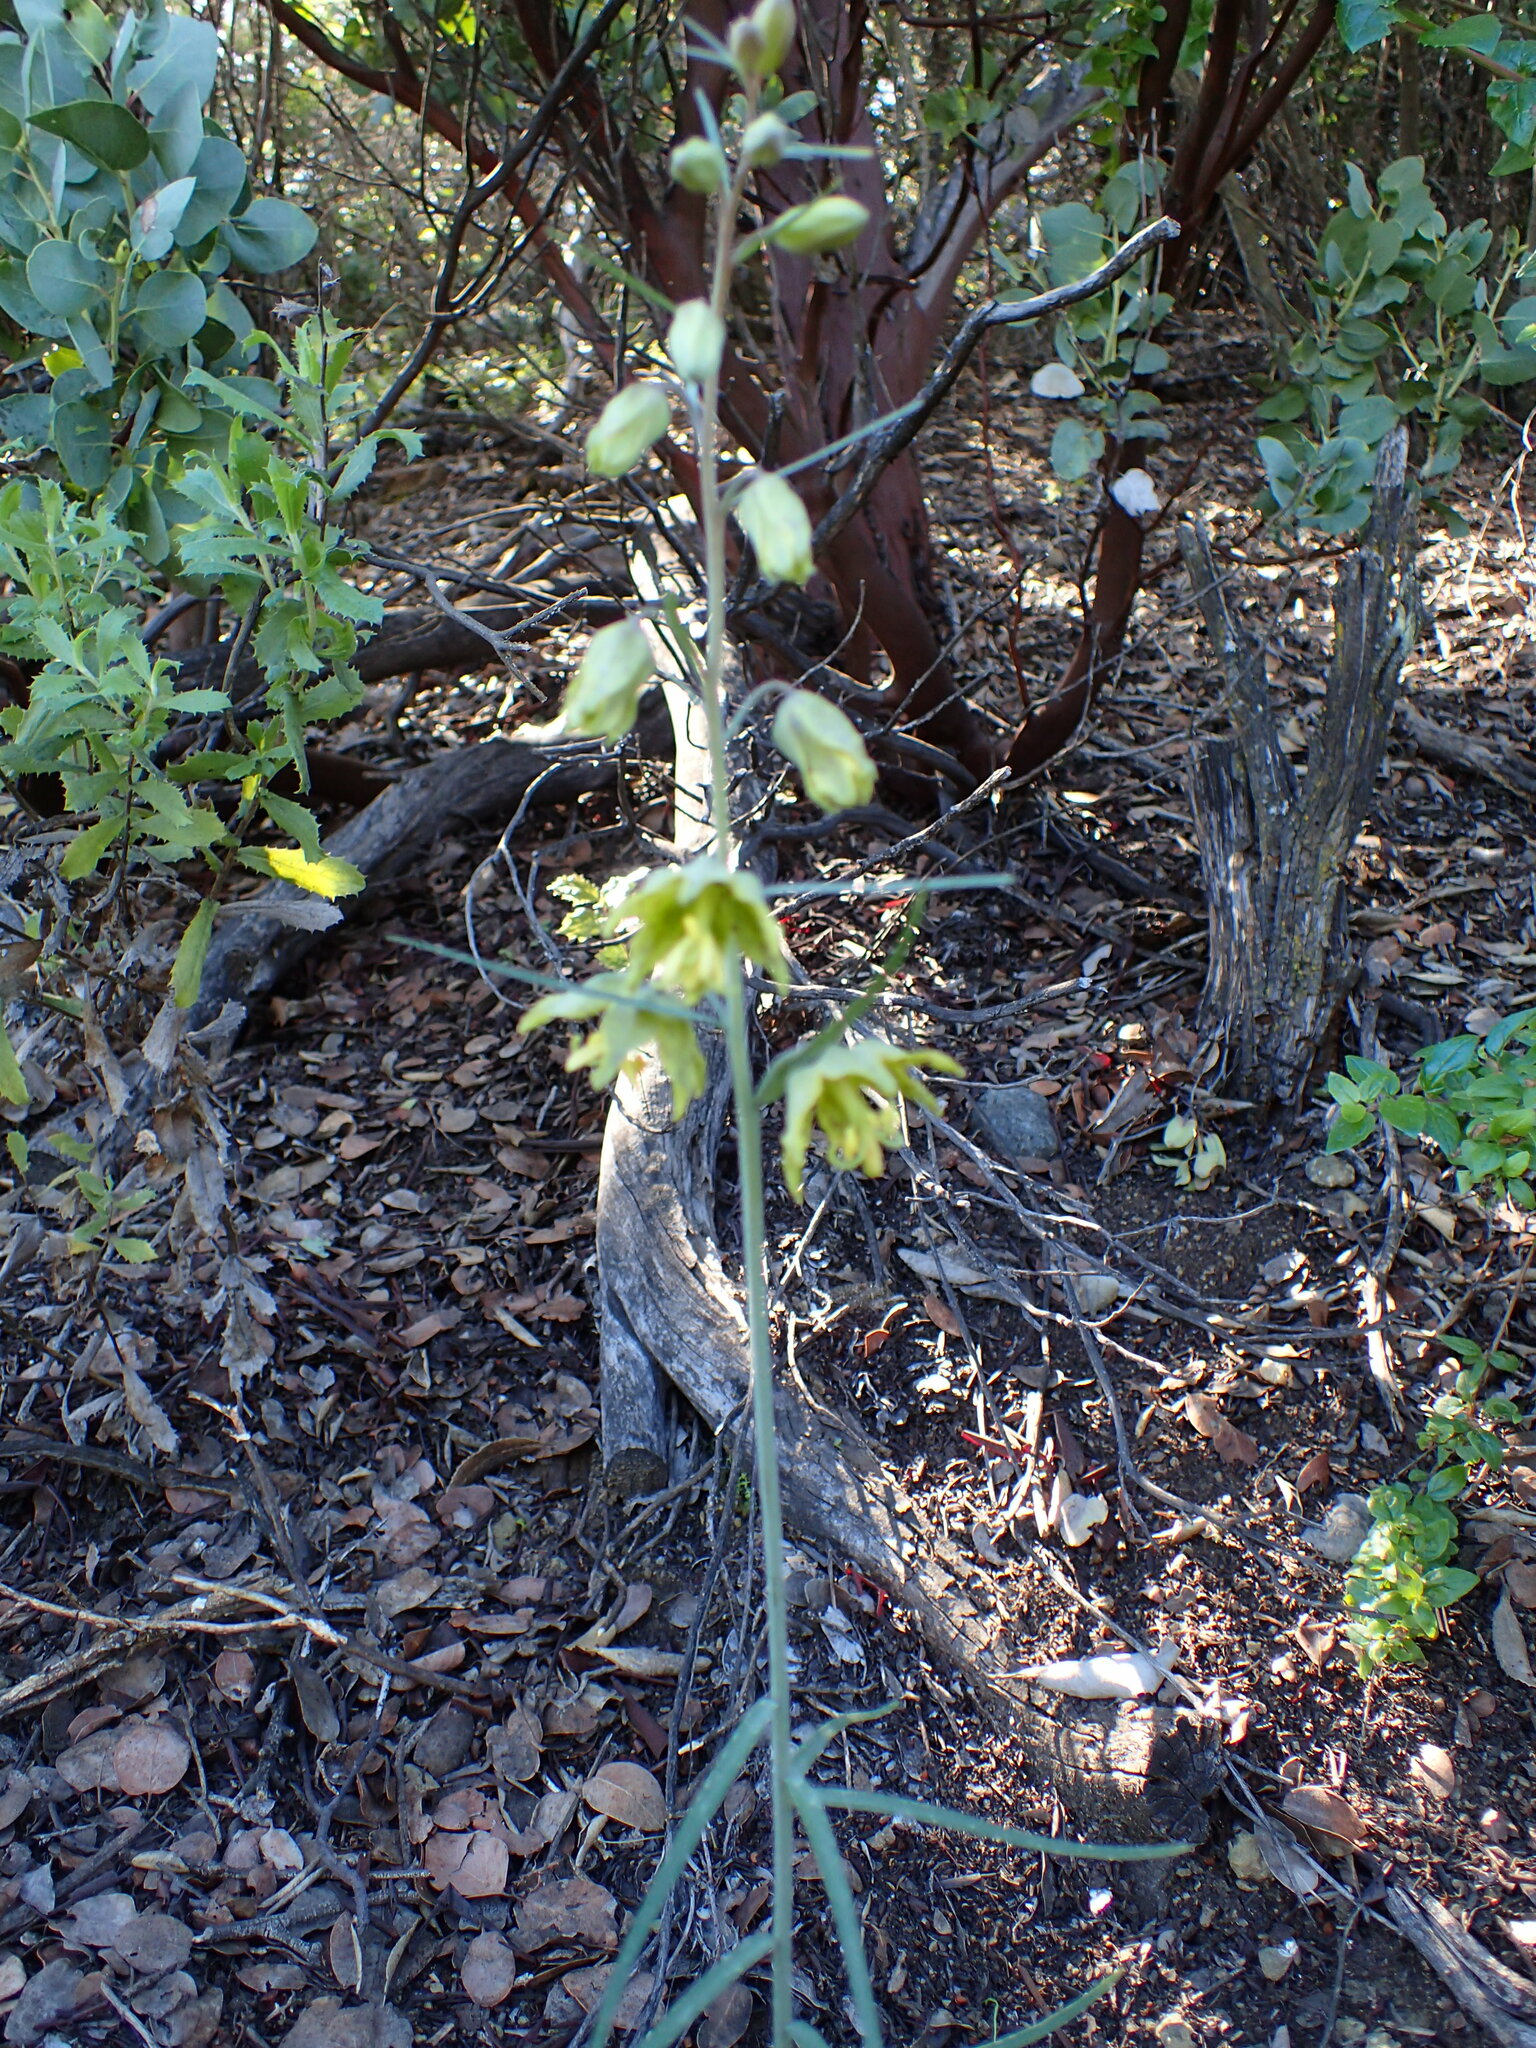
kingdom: Plantae
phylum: Tracheophyta
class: Liliopsida
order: Liliales
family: Liliaceae
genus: Fritillaria
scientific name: Fritillaria ojaiensis
